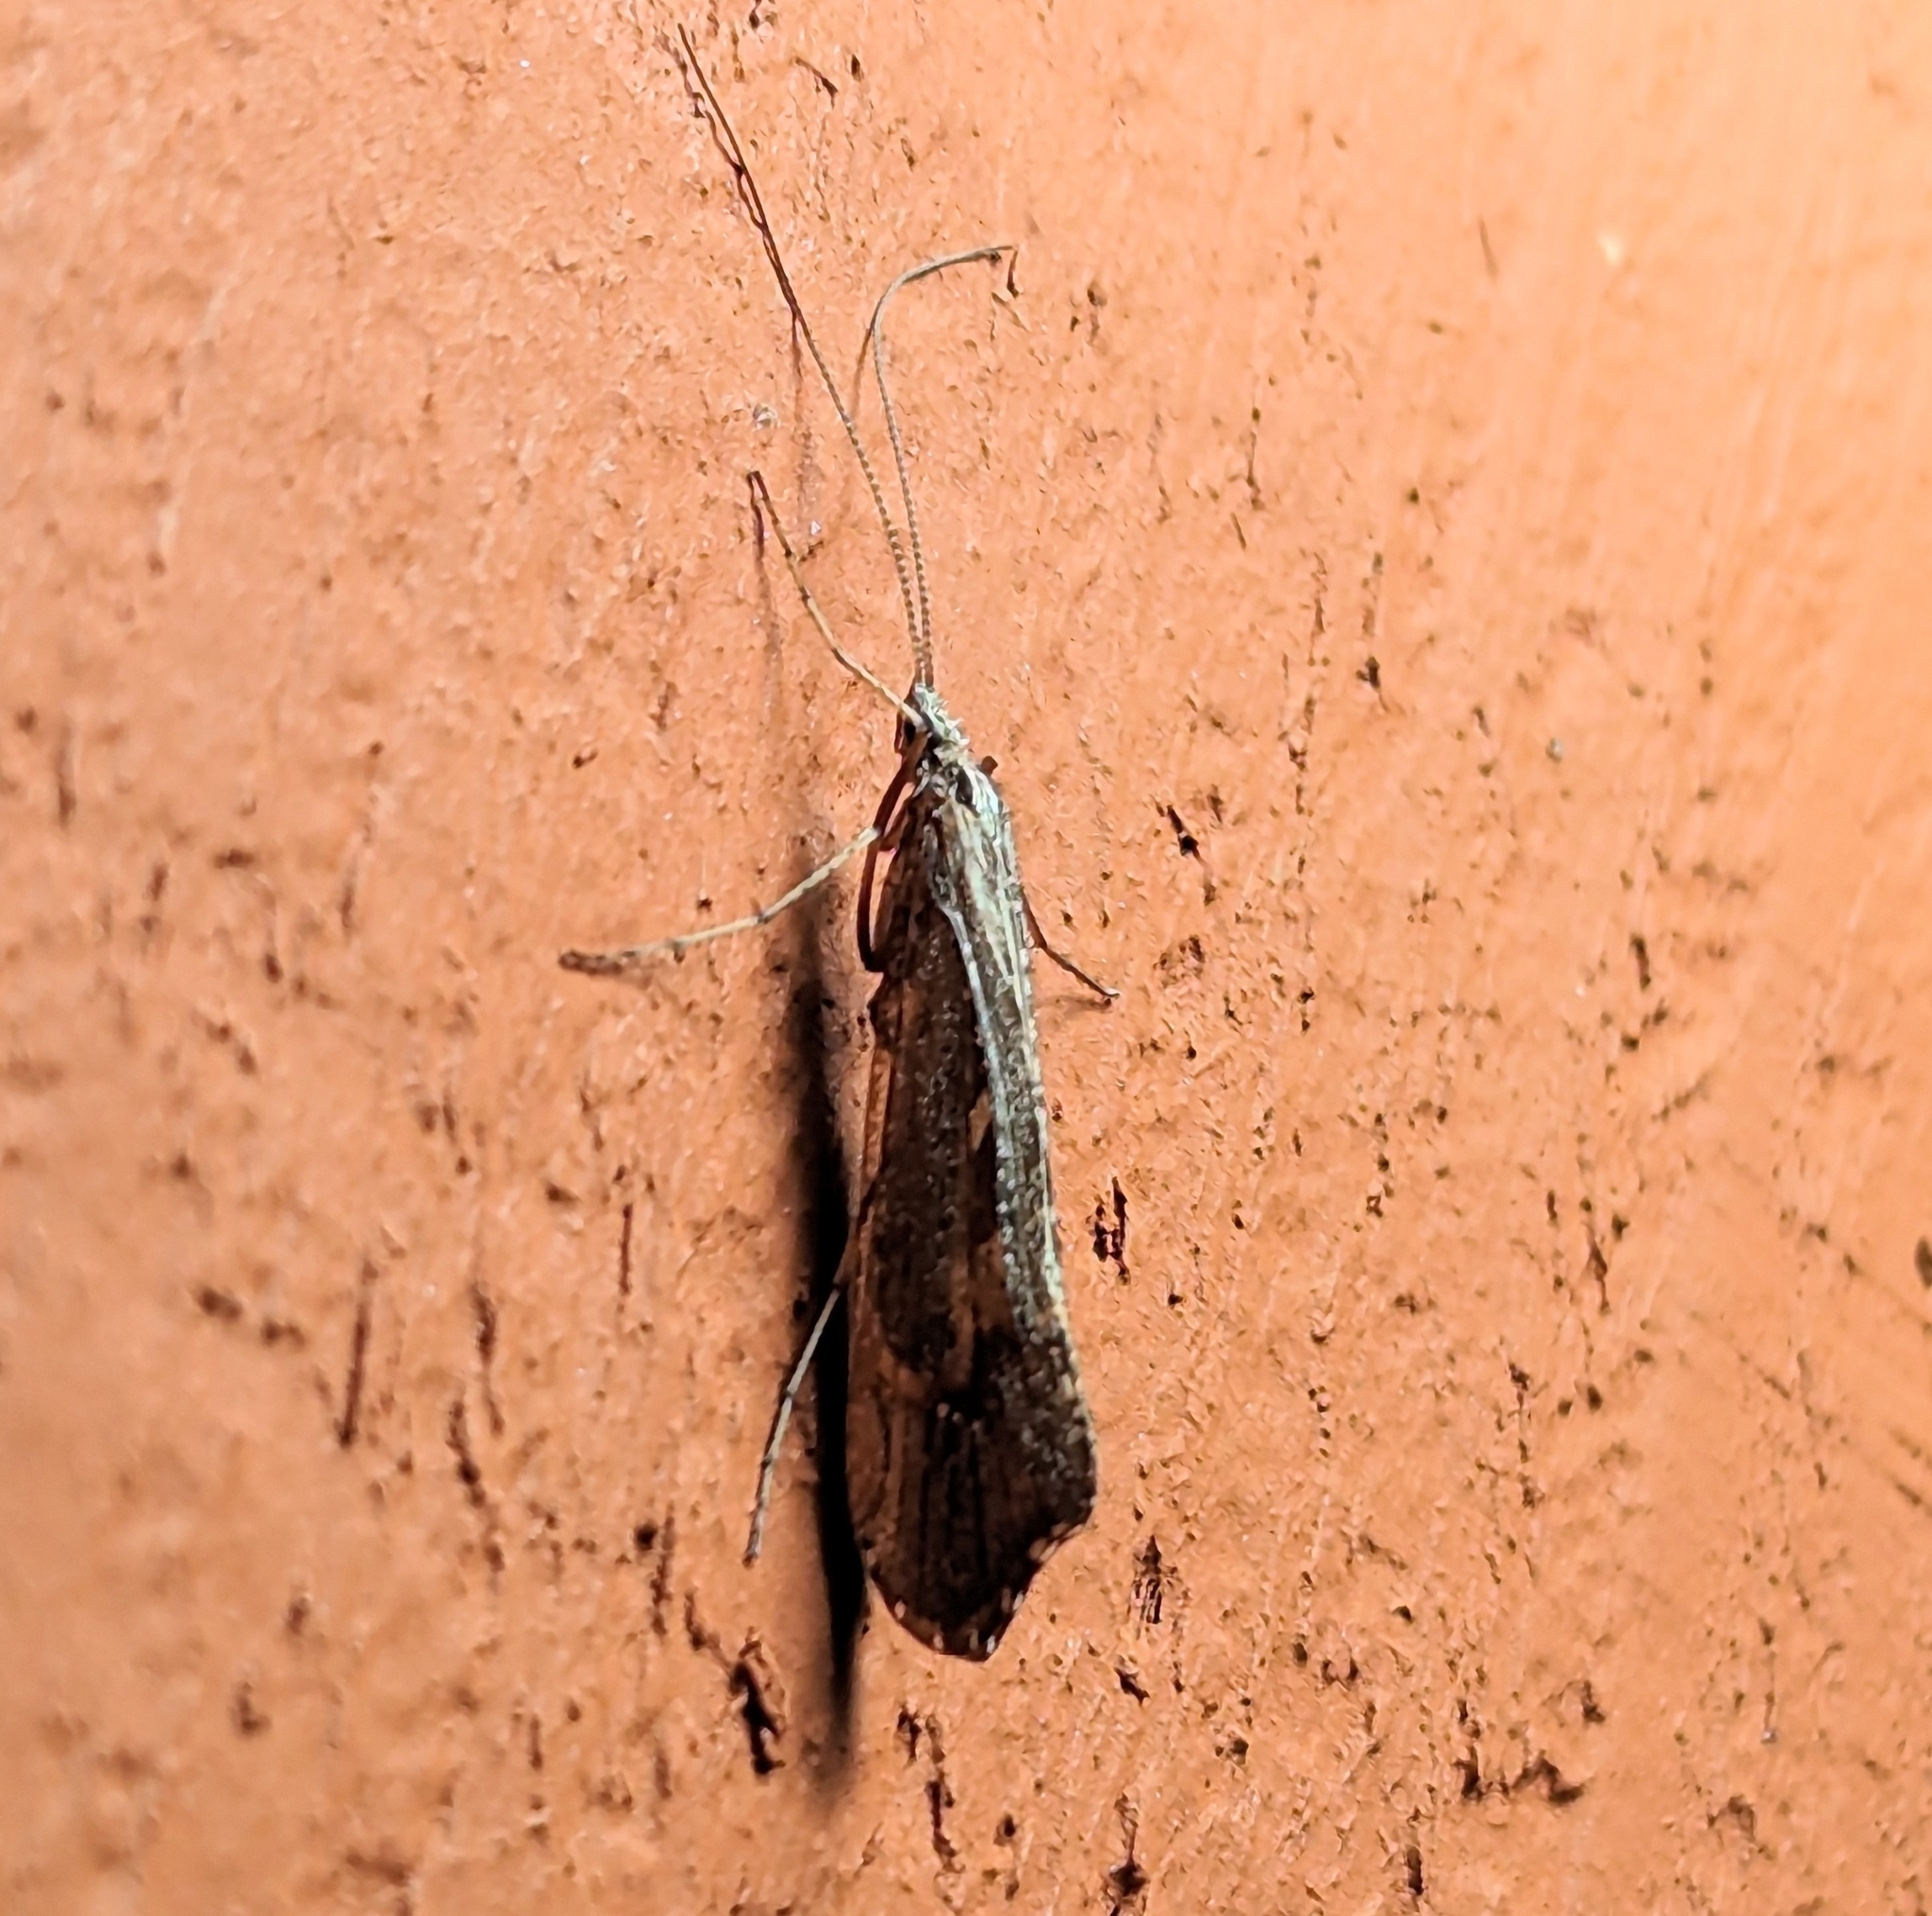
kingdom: Animalia
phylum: Arthropoda
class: Insecta
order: Trichoptera
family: Limnephilidae
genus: Glyphopsyche
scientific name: Glyphopsyche irrorata
